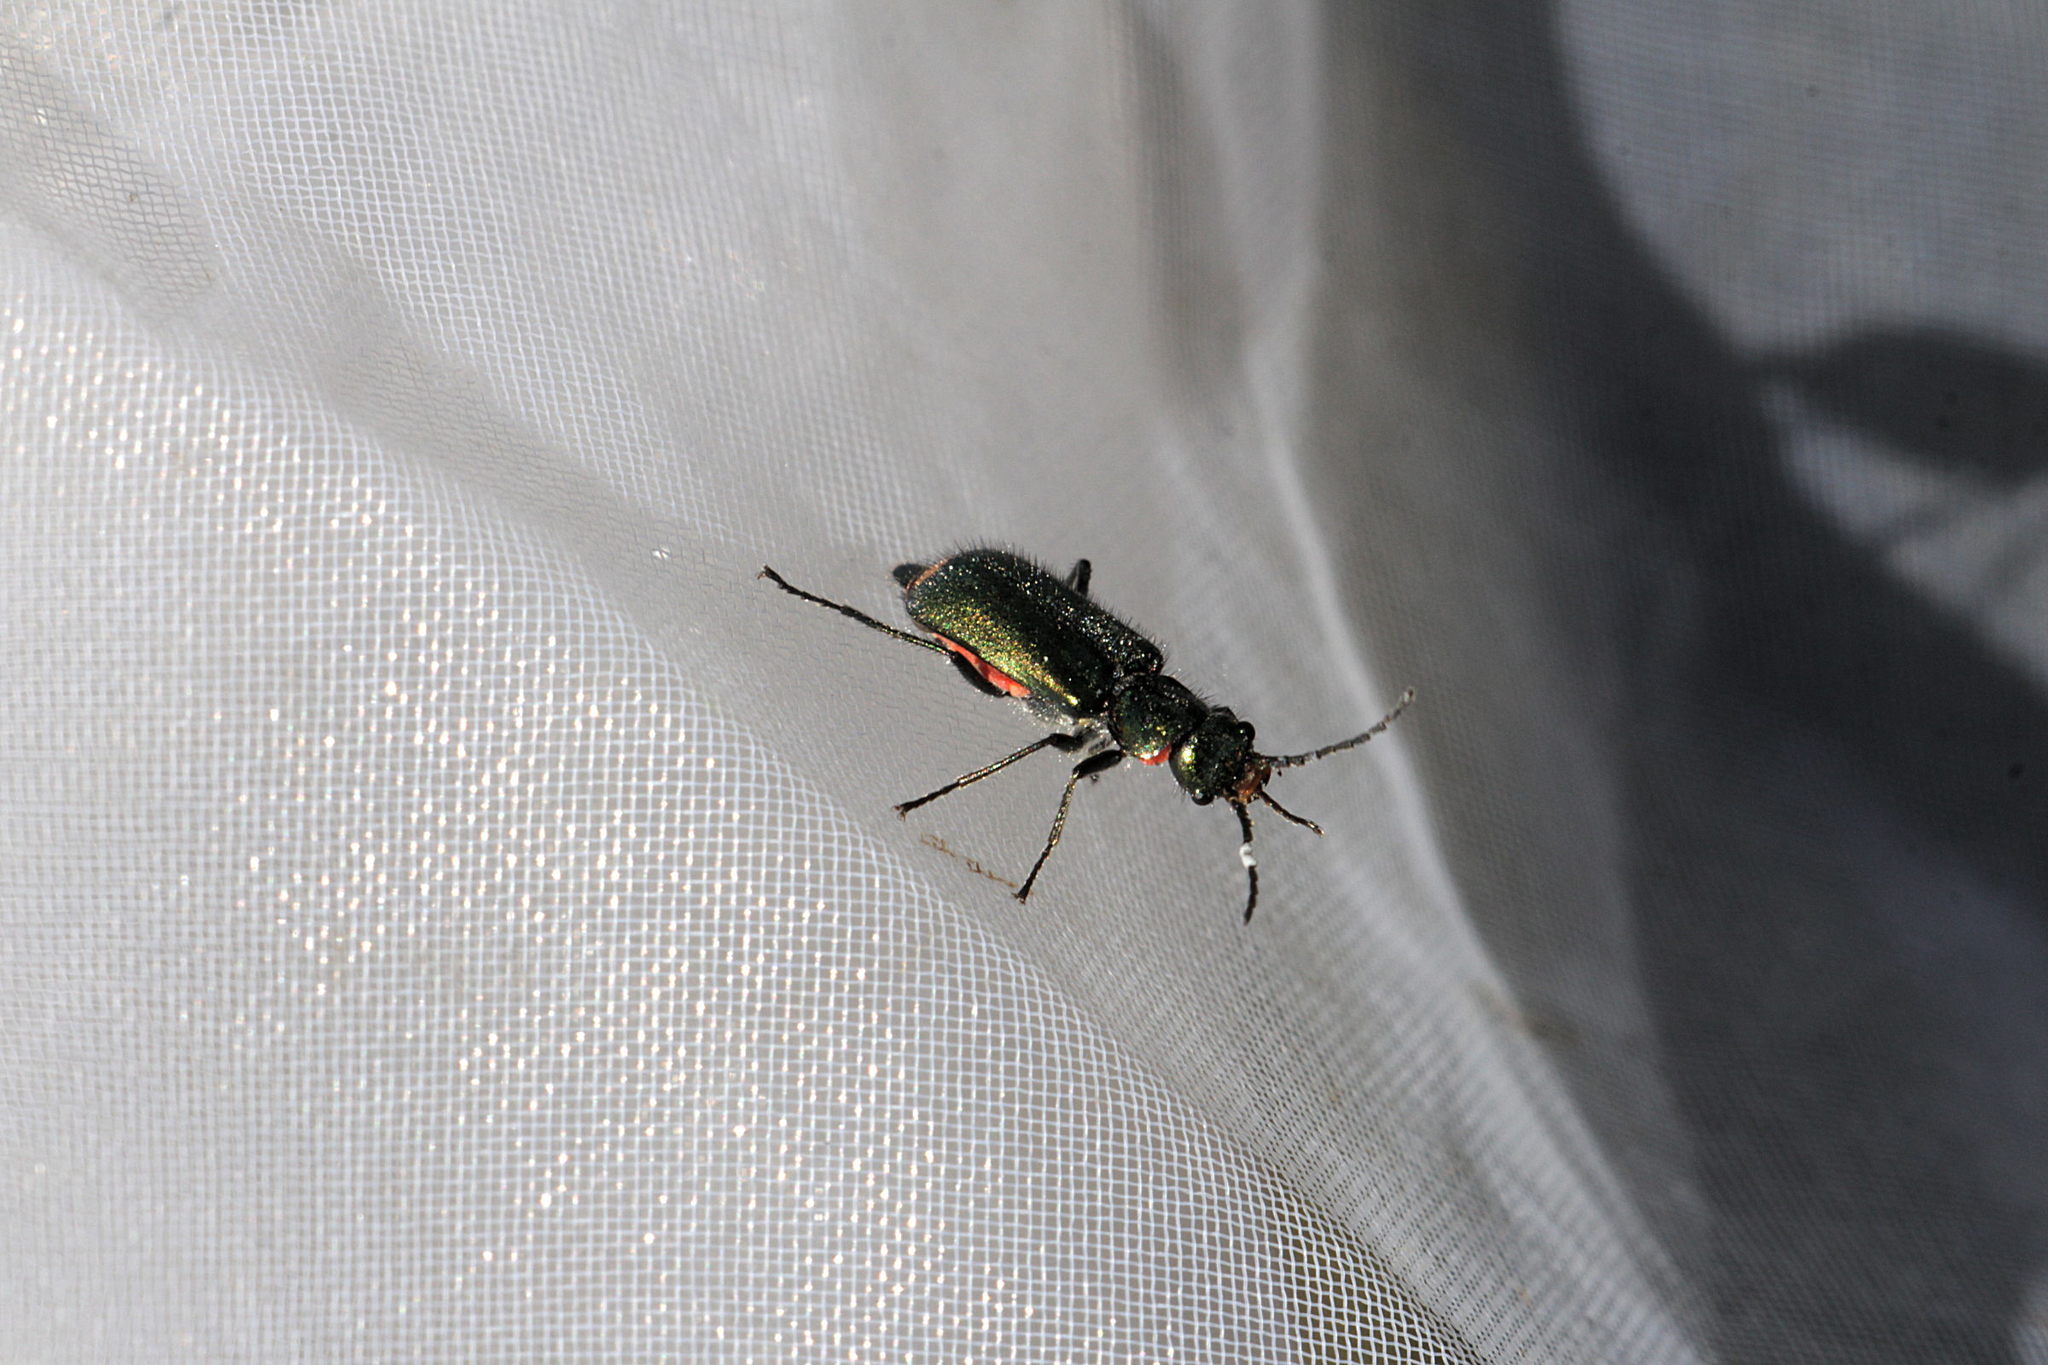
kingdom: Animalia
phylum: Arthropoda
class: Insecta
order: Coleoptera
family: Melyridae
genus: Malachius
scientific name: Malachius bipustulatus
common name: Malachite beetle
